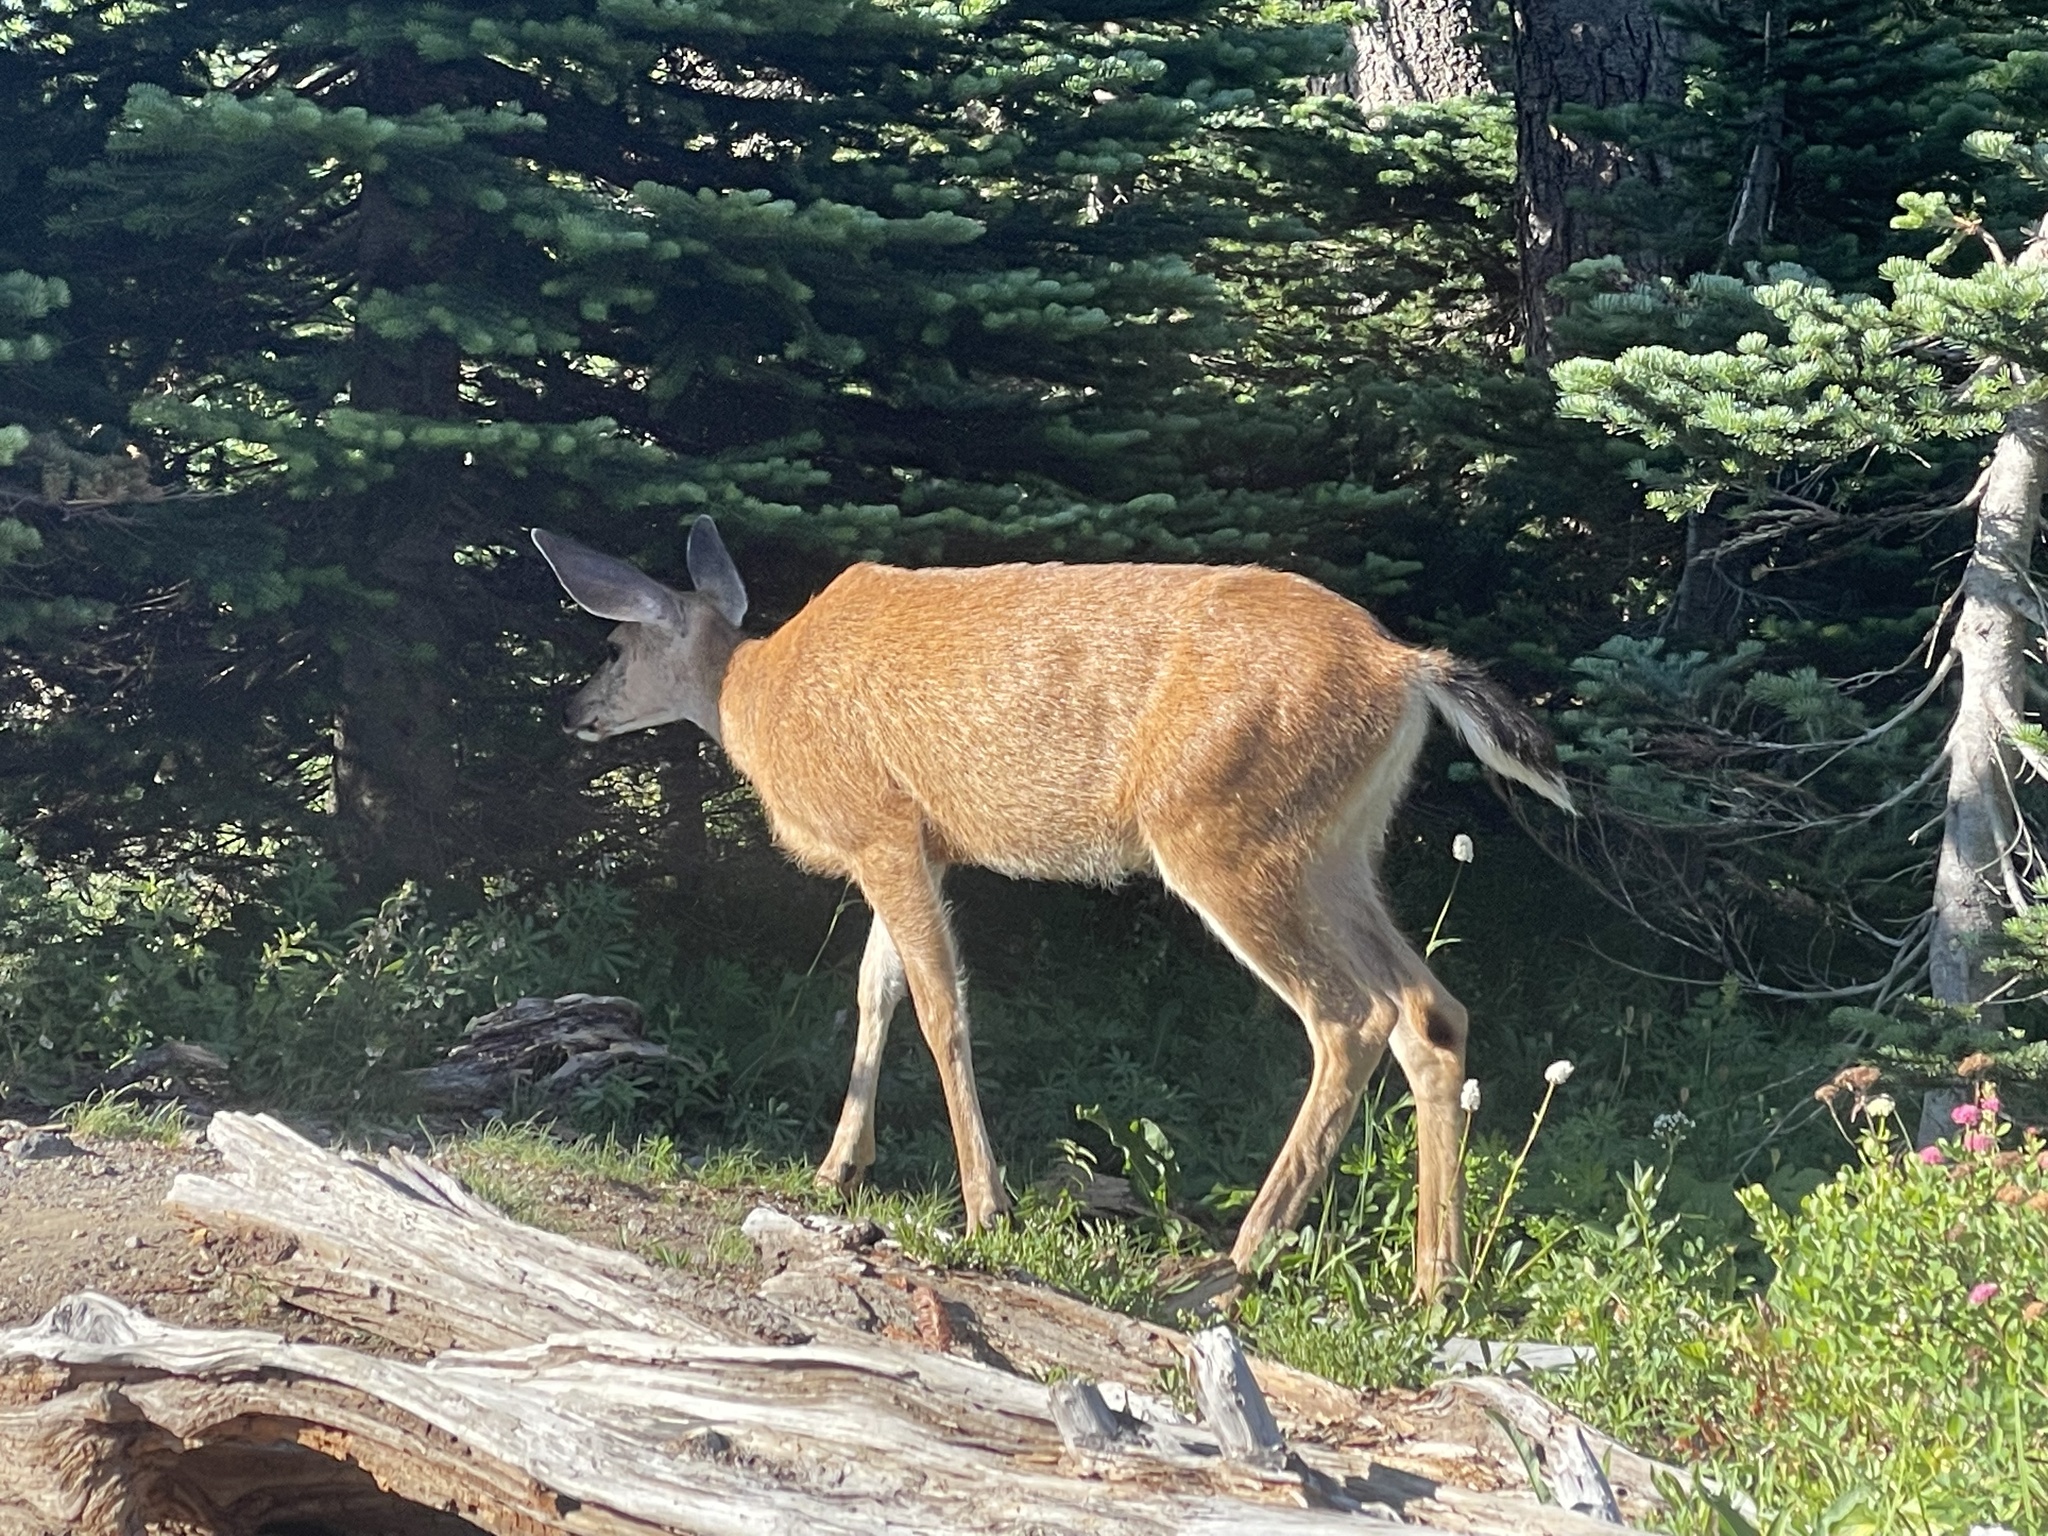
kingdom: Animalia
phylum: Chordata
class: Mammalia
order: Artiodactyla
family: Cervidae
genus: Odocoileus
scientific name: Odocoileus hemionus
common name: Mule deer
